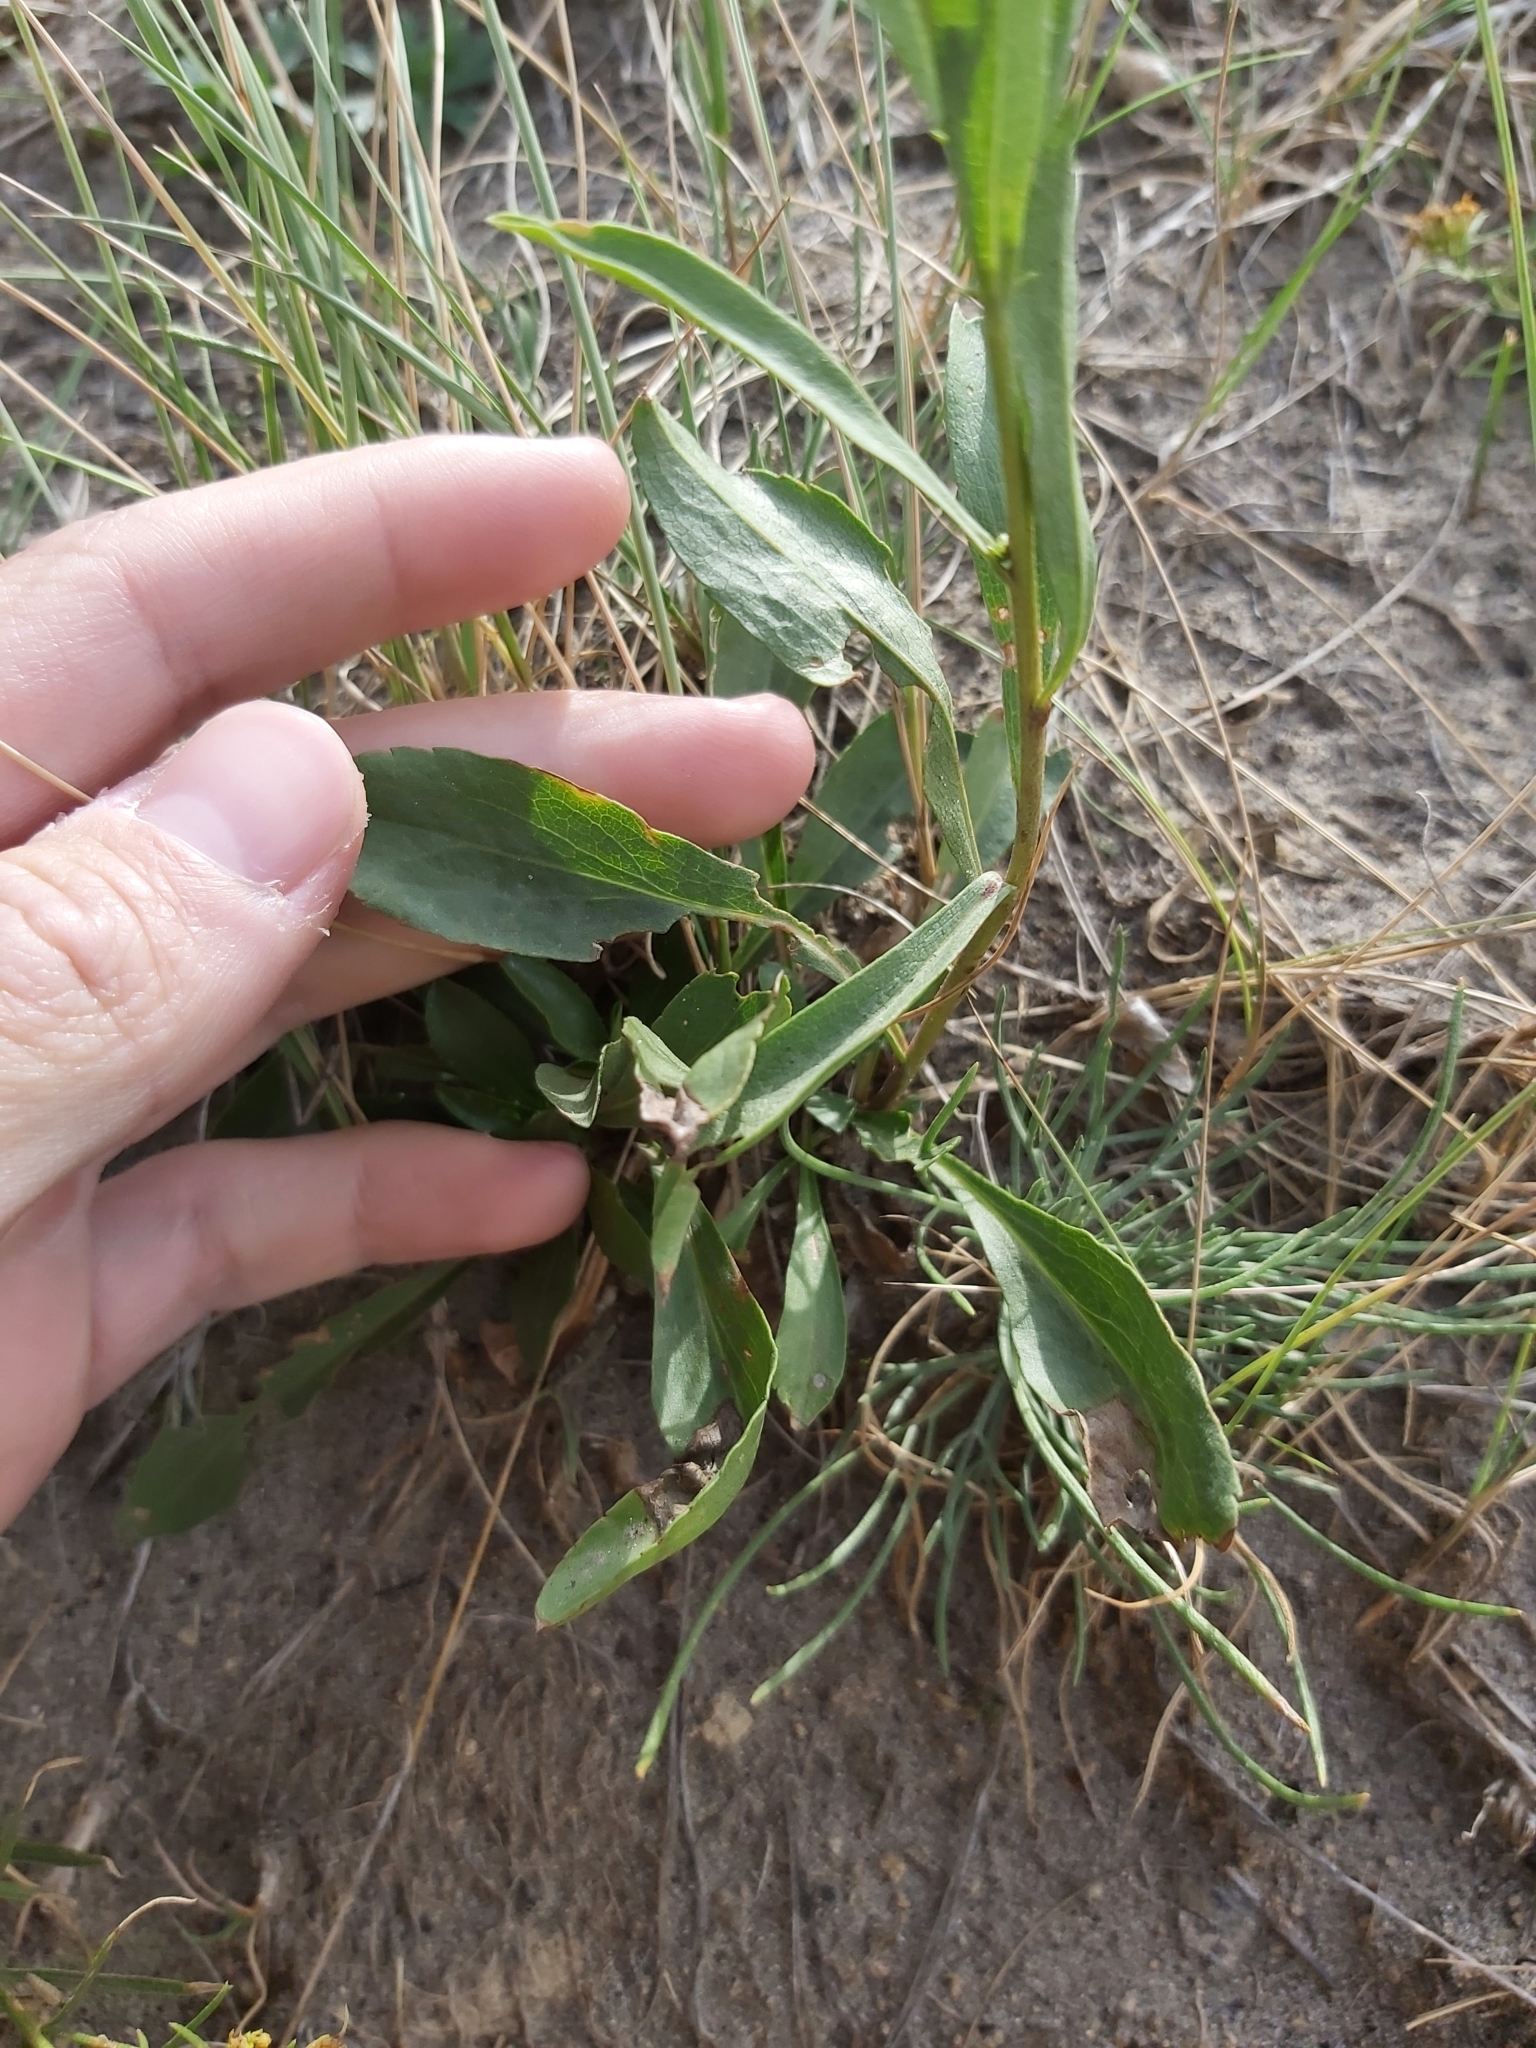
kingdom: Plantae
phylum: Tracheophyta
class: Magnoliopsida
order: Asterales
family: Asteraceae
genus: Solidago
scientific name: Solidago missouriensis
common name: Prairie goldenrod
